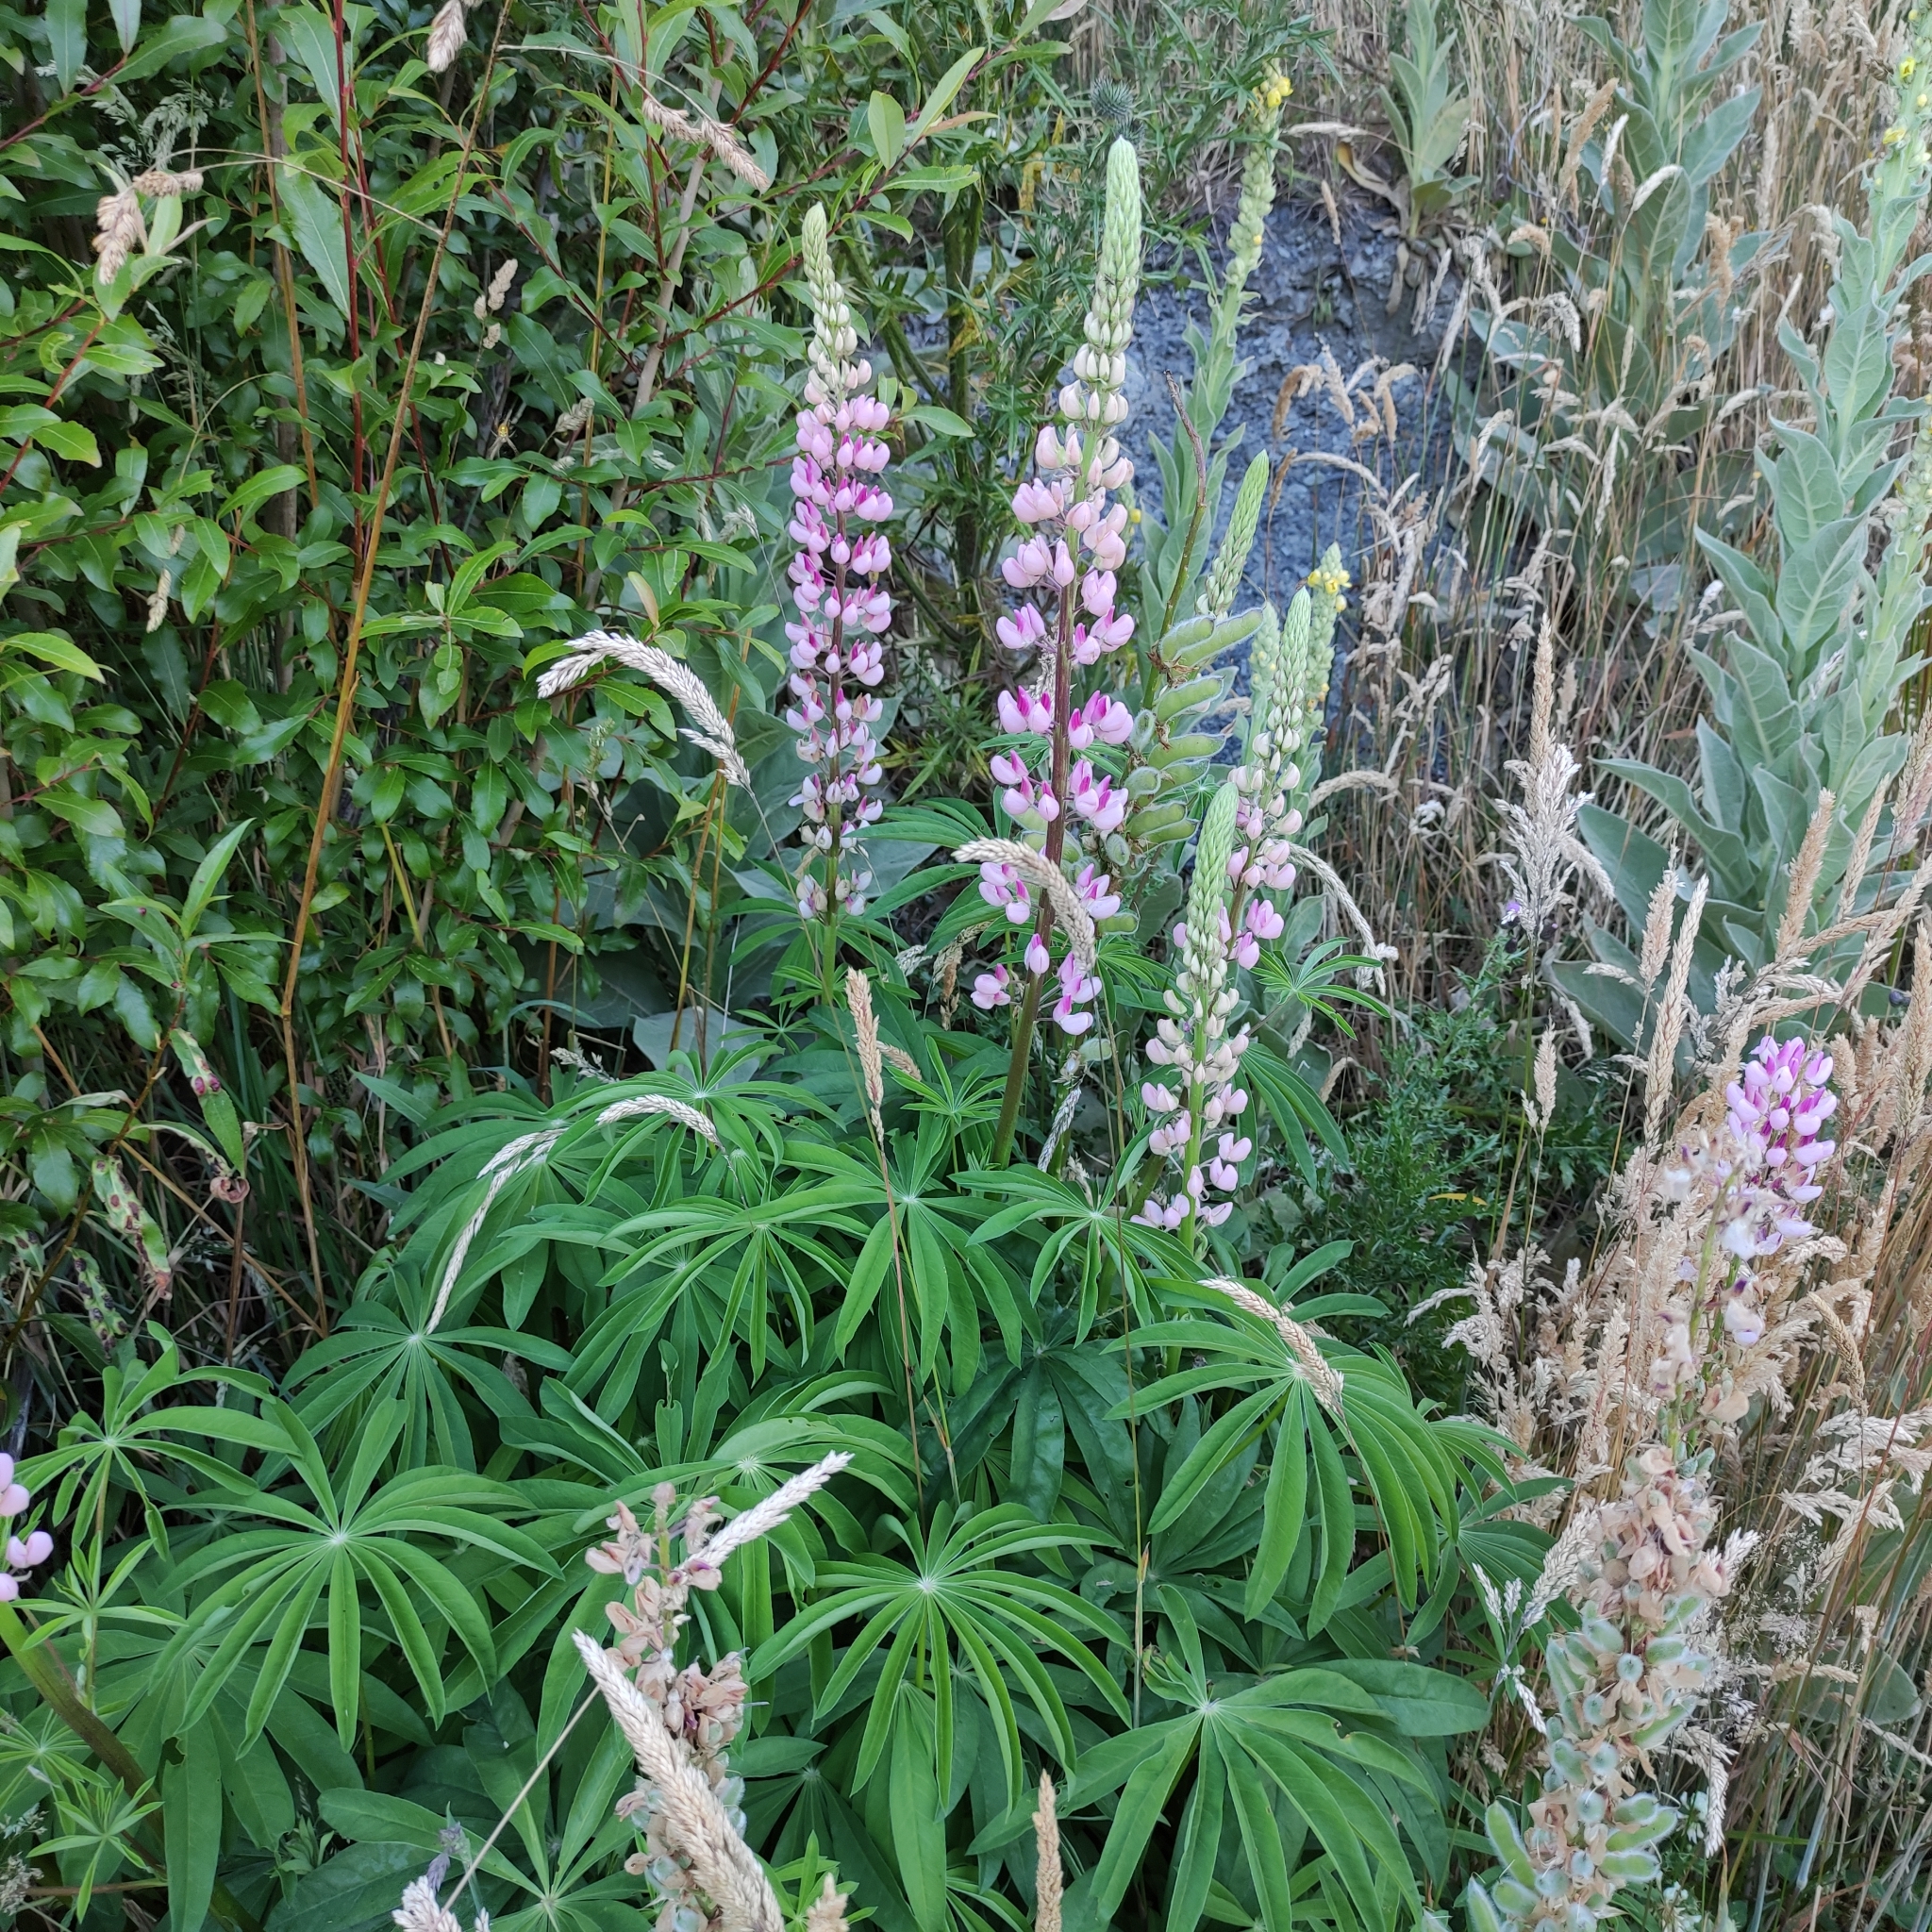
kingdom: Plantae
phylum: Tracheophyta
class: Magnoliopsida
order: Fabales
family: Fabaceae
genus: Lupinus
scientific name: Lupinus polyphyllus
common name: Garden lupin
